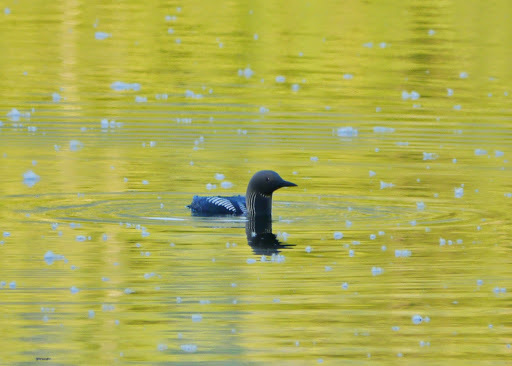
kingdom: Animalia
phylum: Chordata
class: Aves
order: Gaviiformes
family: Gaviidae
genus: Gavia
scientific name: Gavia pacifica
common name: Pacific loon
